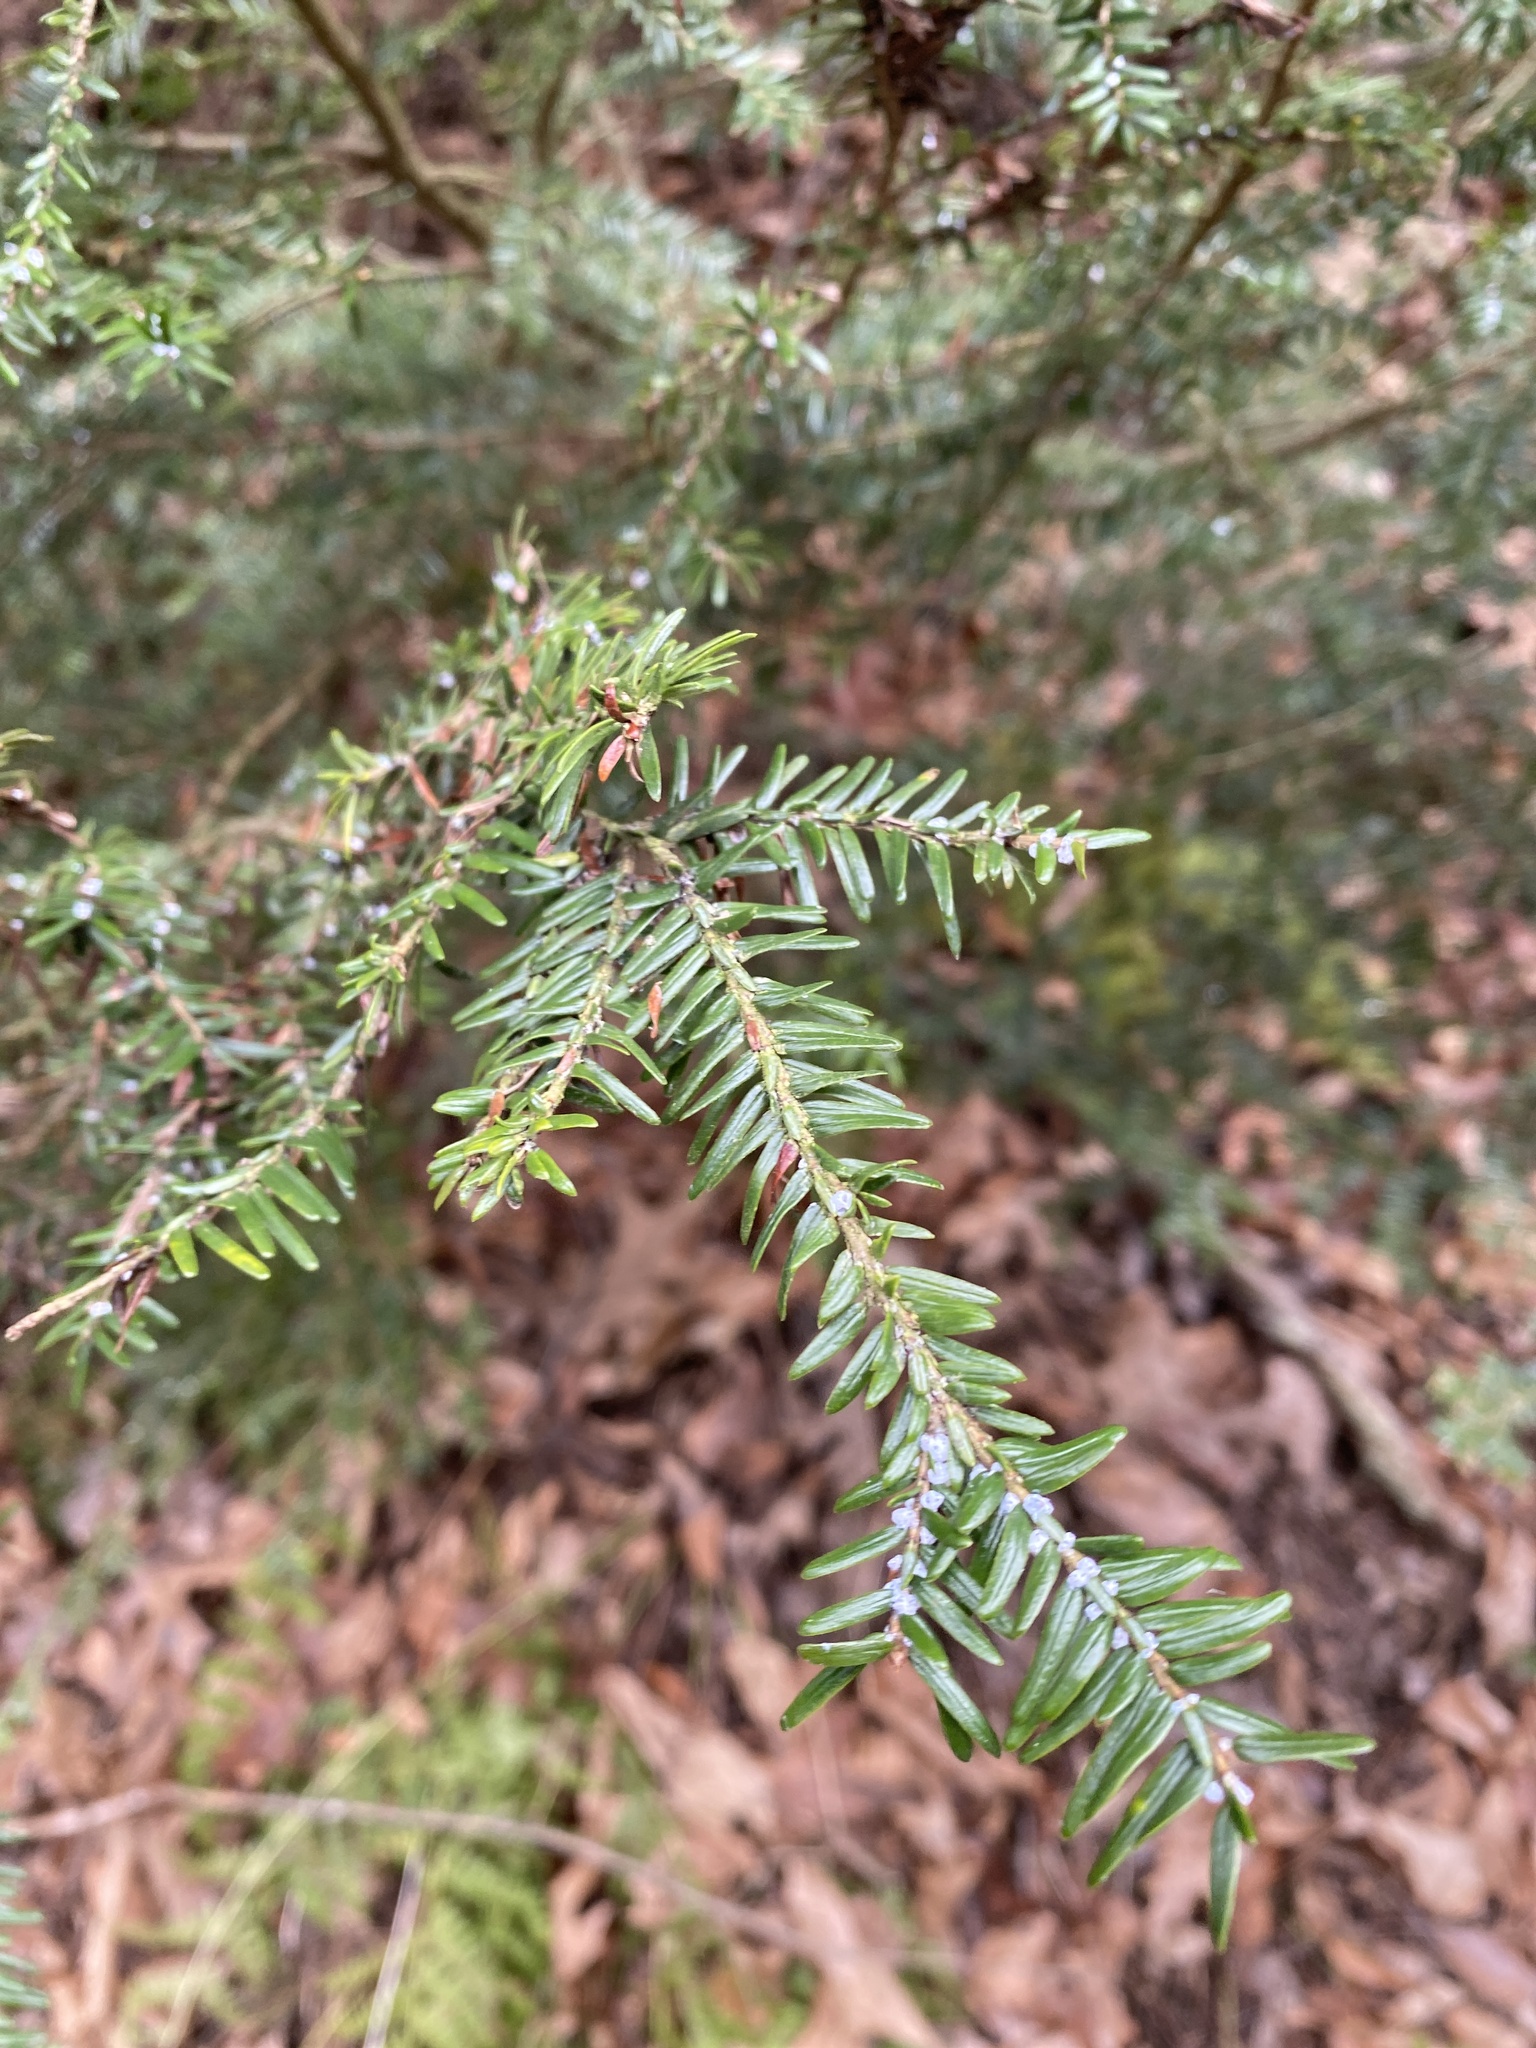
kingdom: Animalia
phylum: Arthropoda
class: Insecta
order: Hemiptera
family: Adelgidae
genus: Adelges
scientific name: Adelges tsugae
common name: Hemlock woolly adelgid
